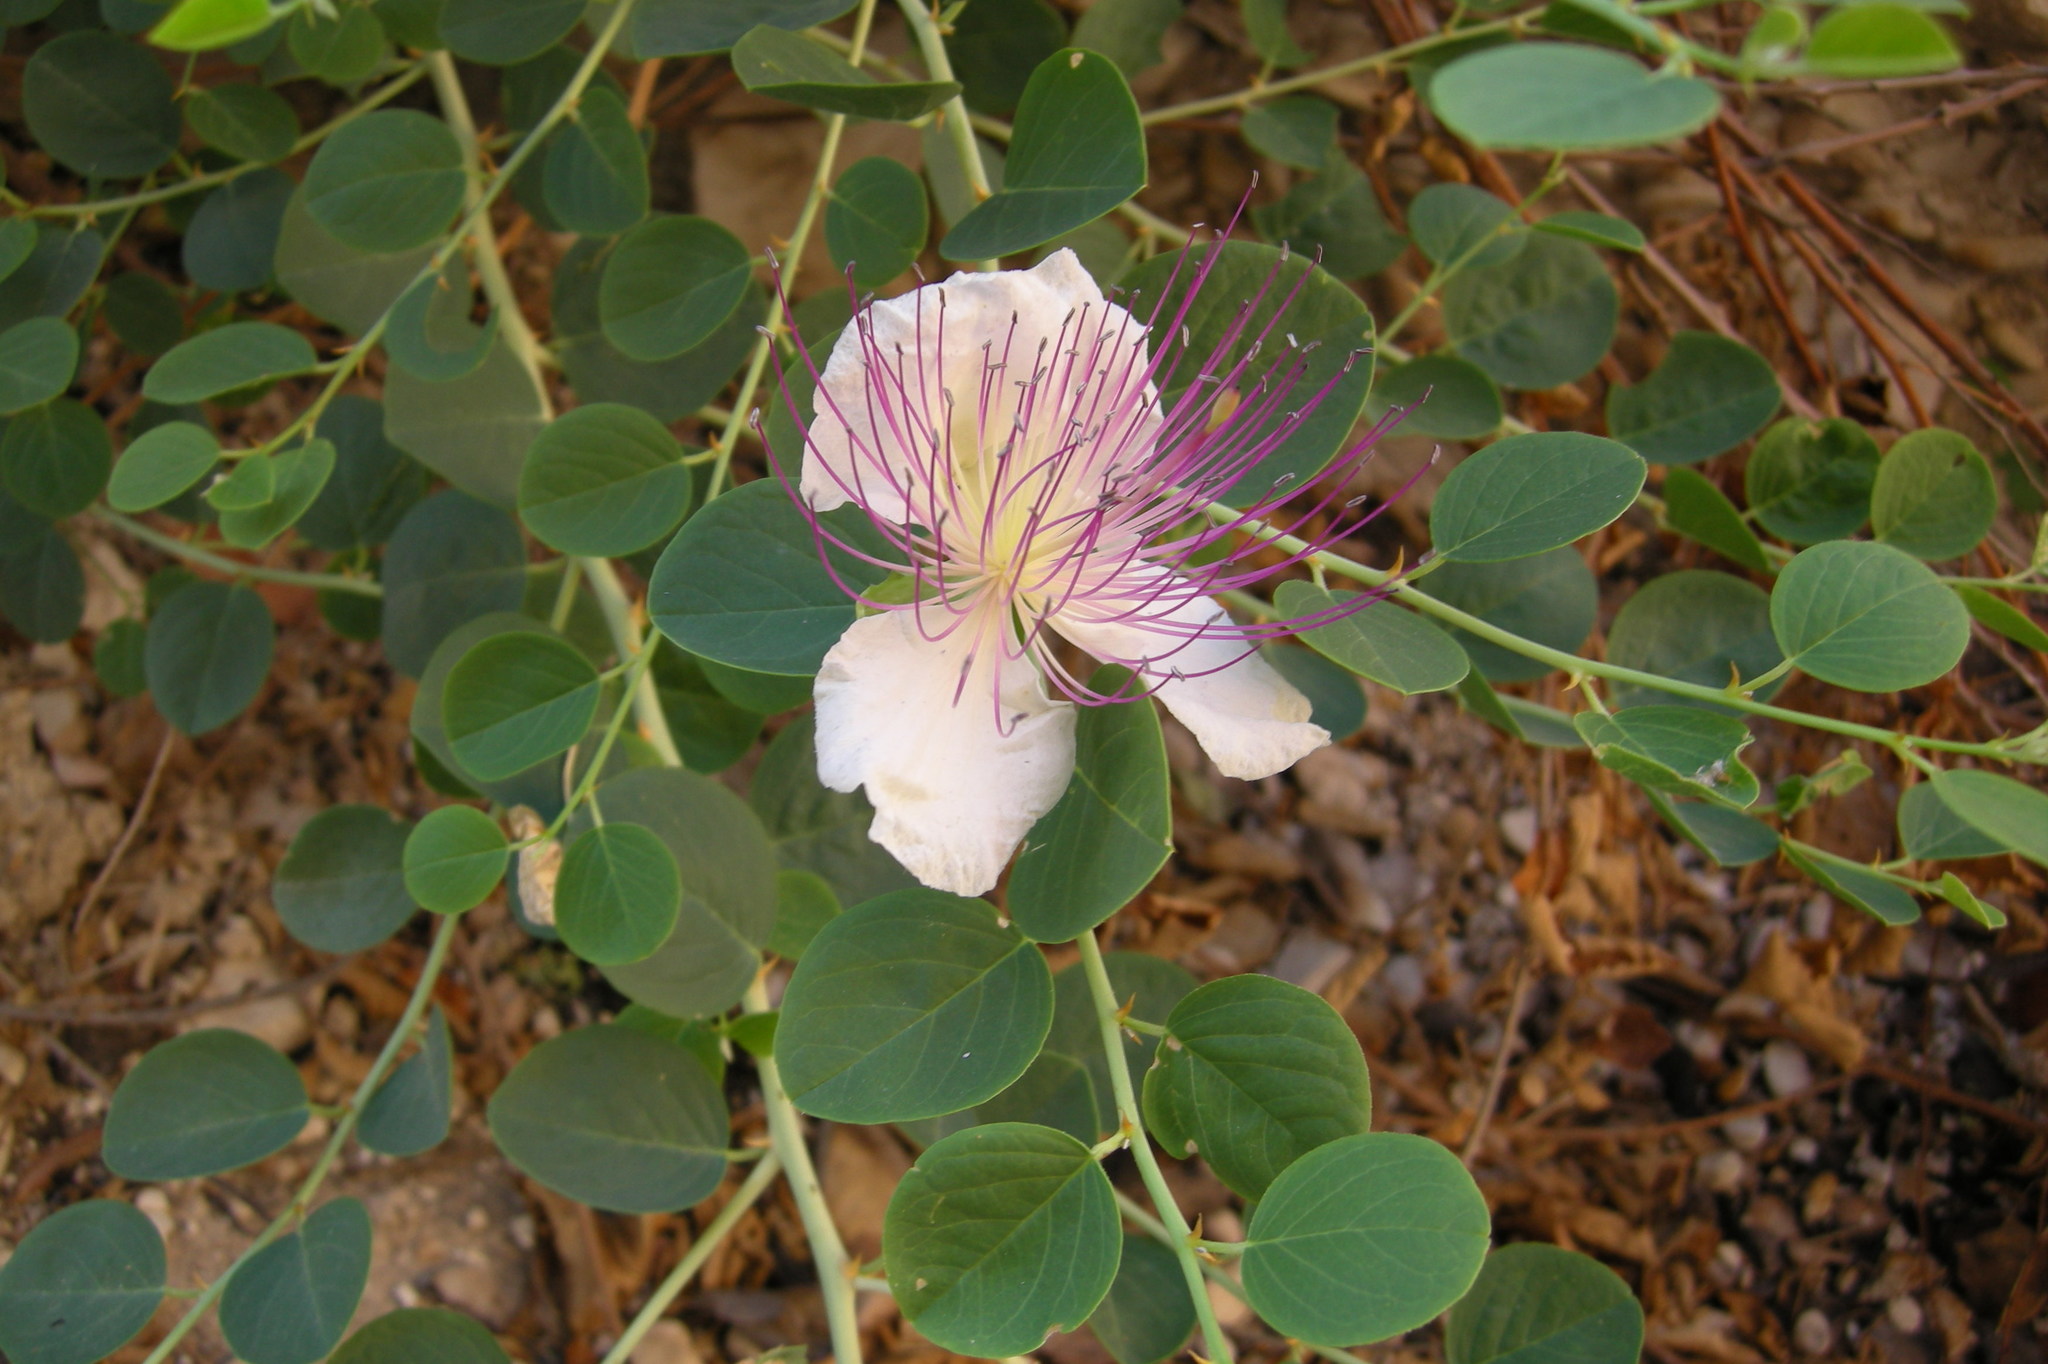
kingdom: Plantae
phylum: Tracheophyta
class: Magnoliopsida
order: Brassicales
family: Capparaceae
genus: Capparis
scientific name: Capparis spinosa
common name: Caper
